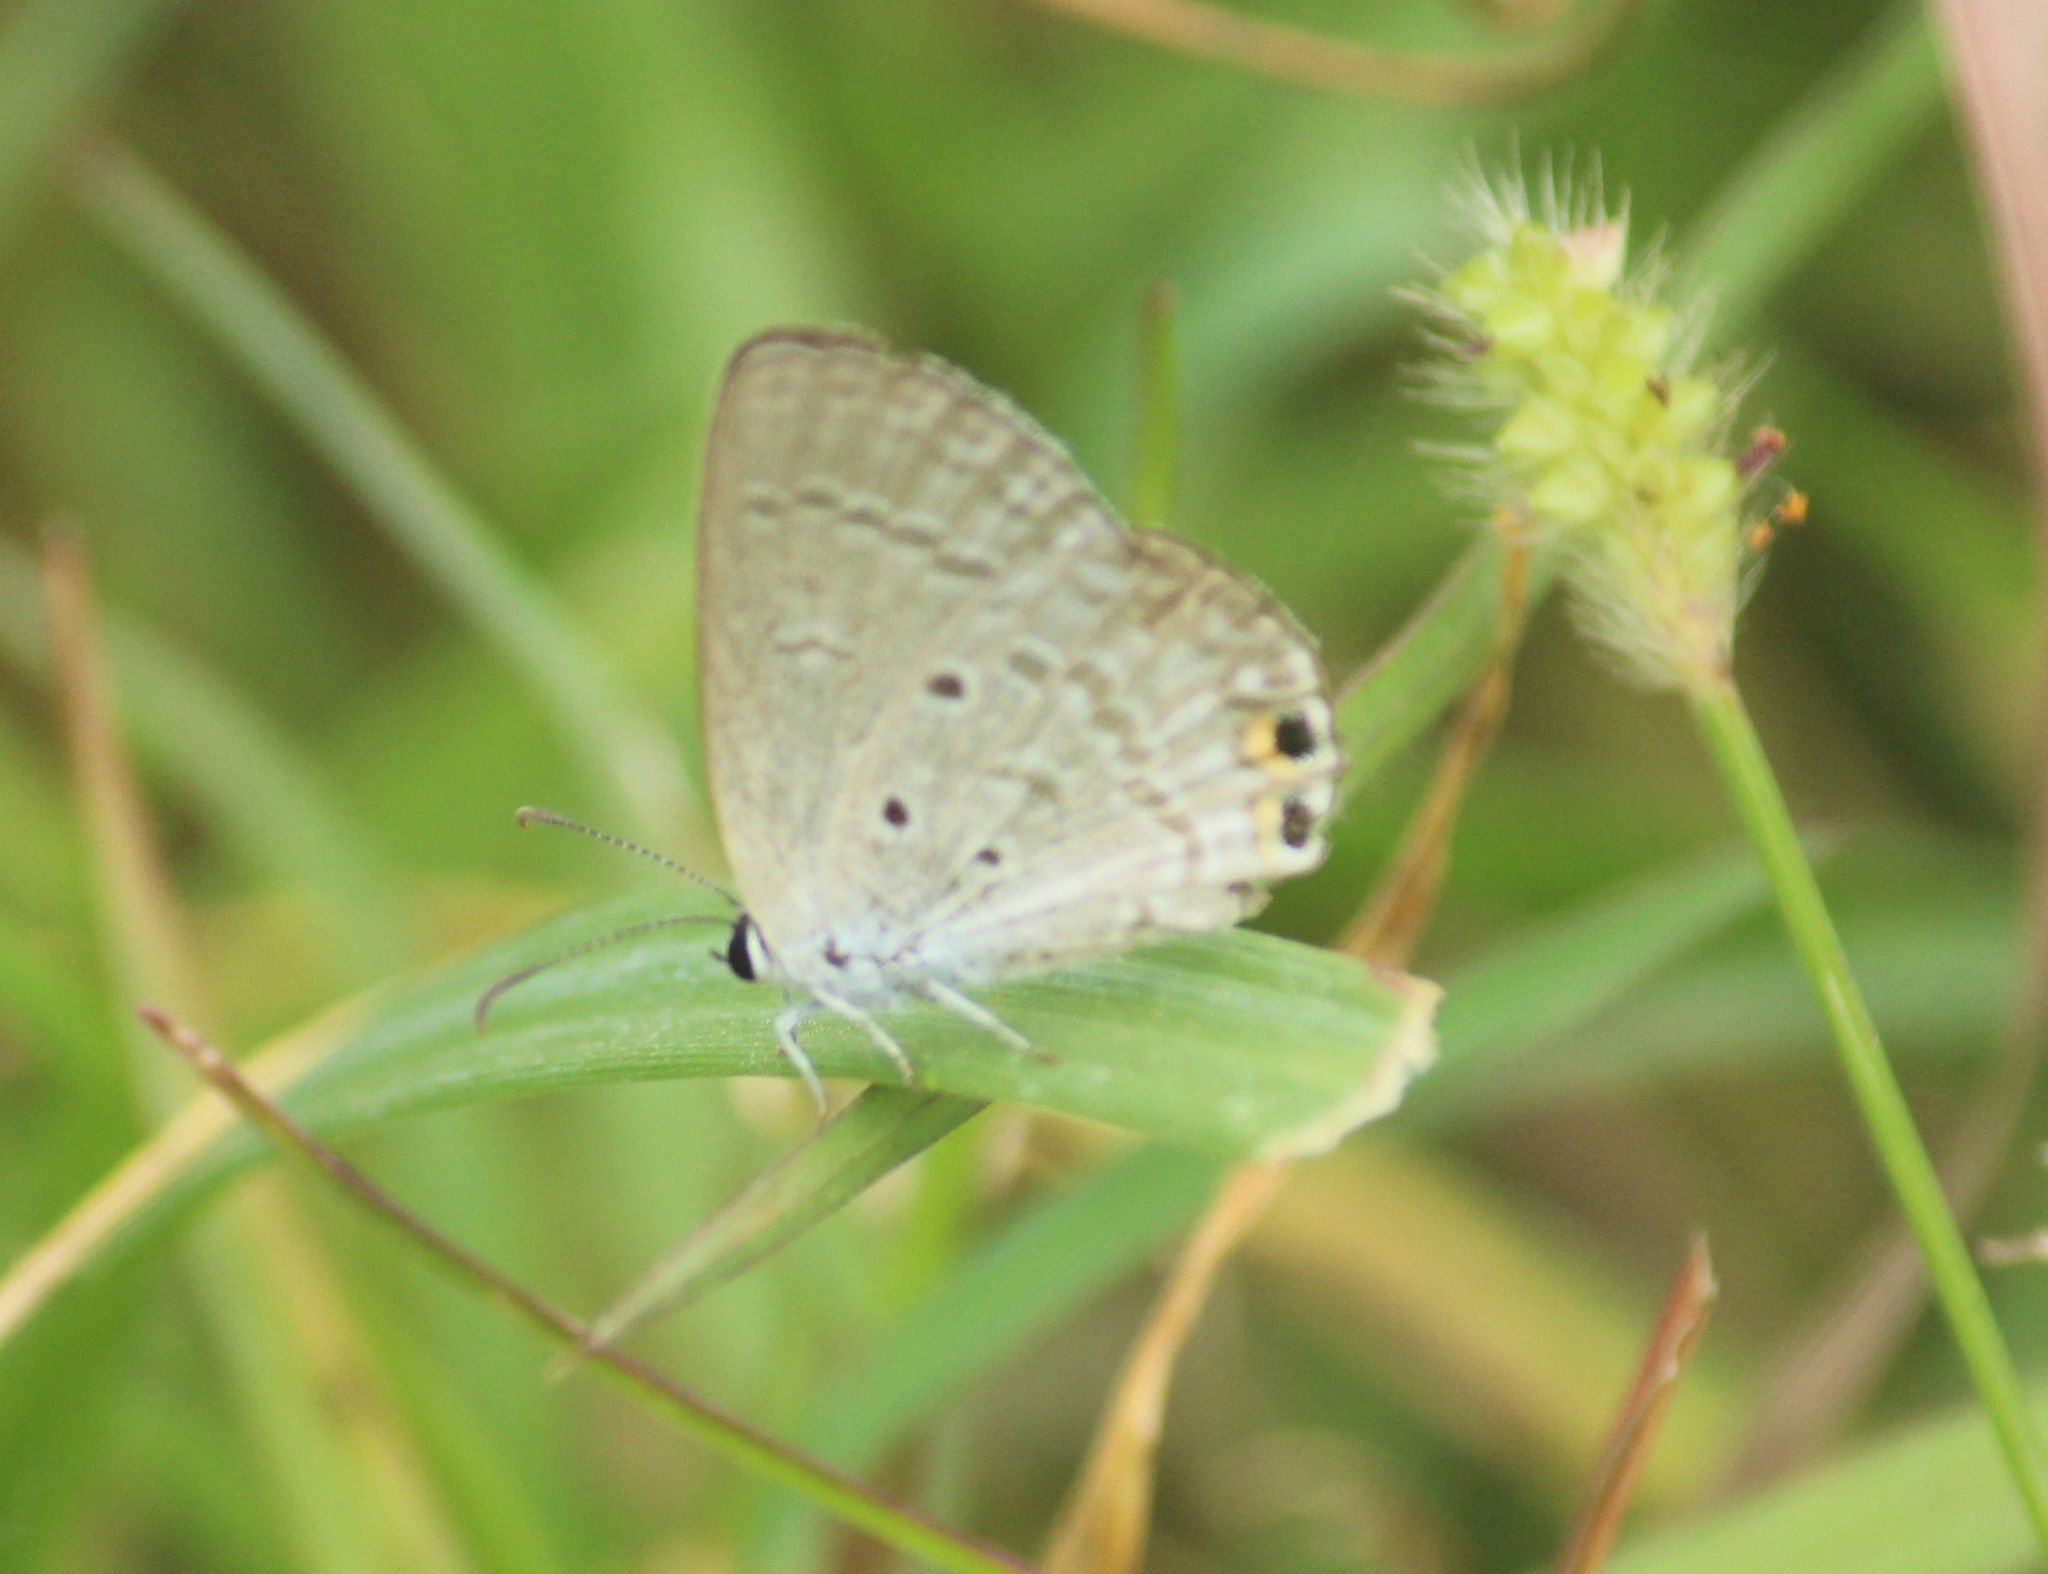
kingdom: Animalia
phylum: Arthropoda
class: Insecta
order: Lepidoptera
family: Lycaenidae
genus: Euchrysops
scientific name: Euchrysops cnejus
